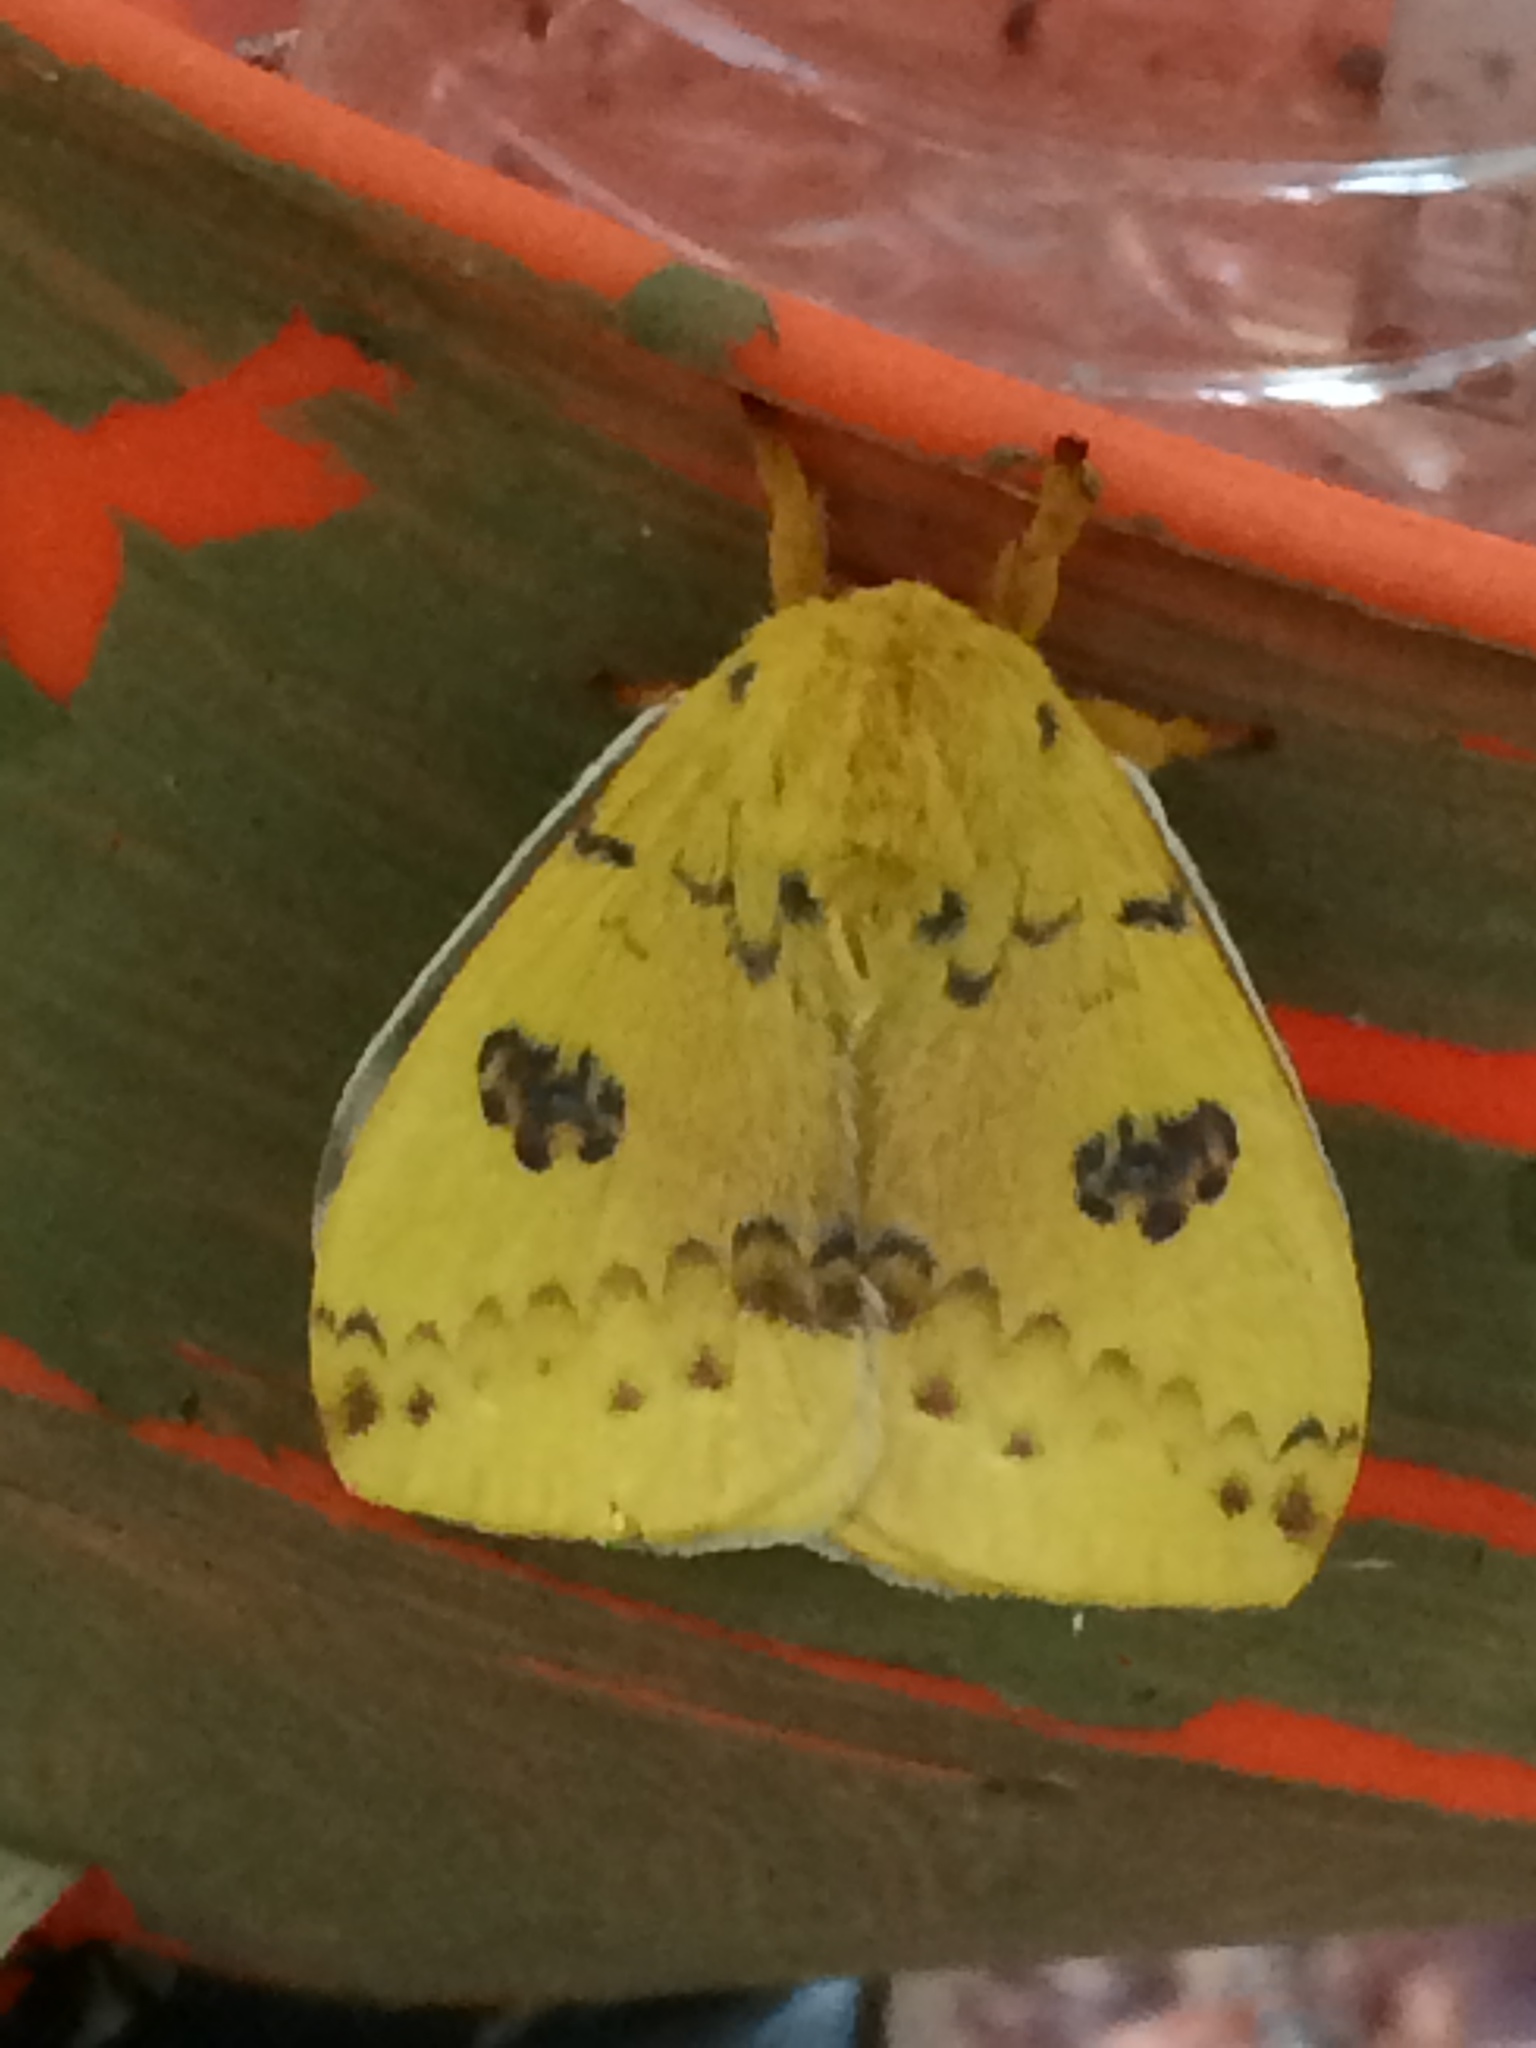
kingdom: Animalia
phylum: Arthropoda
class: Insecta
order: Lepidoptera
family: Saturniidae
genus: Automeris
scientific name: Automeris io
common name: Io moth
